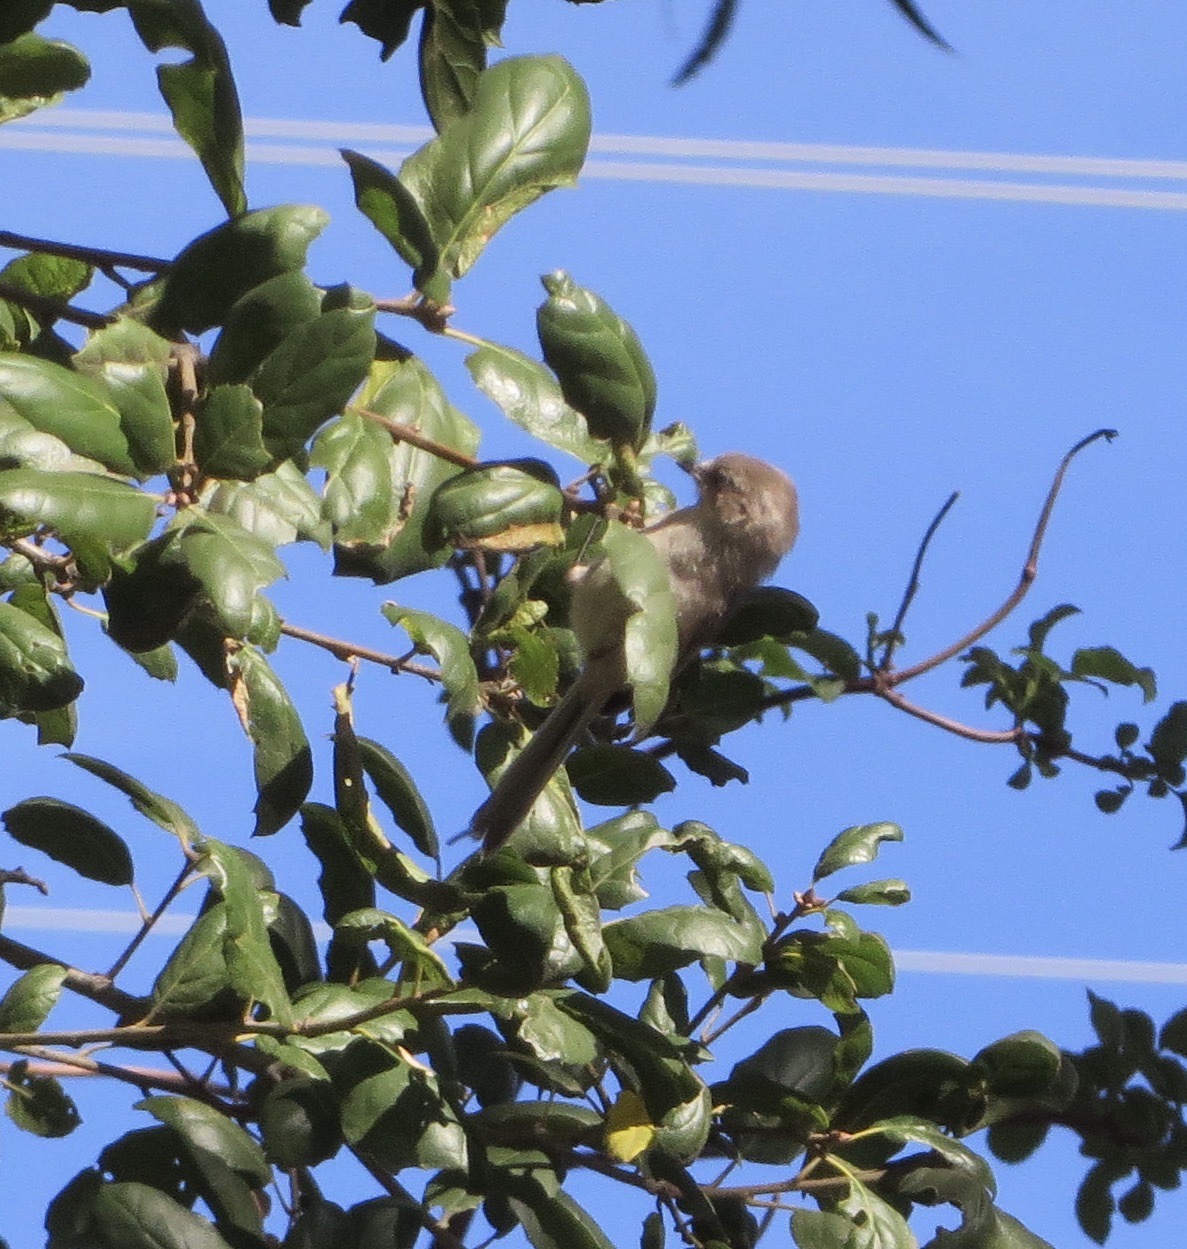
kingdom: Animalia
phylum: Chordata
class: Aves
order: Passeriformes
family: Aegithalidae
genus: Psaltriparus
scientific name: Psaltriparus minimus
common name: American bushtit
